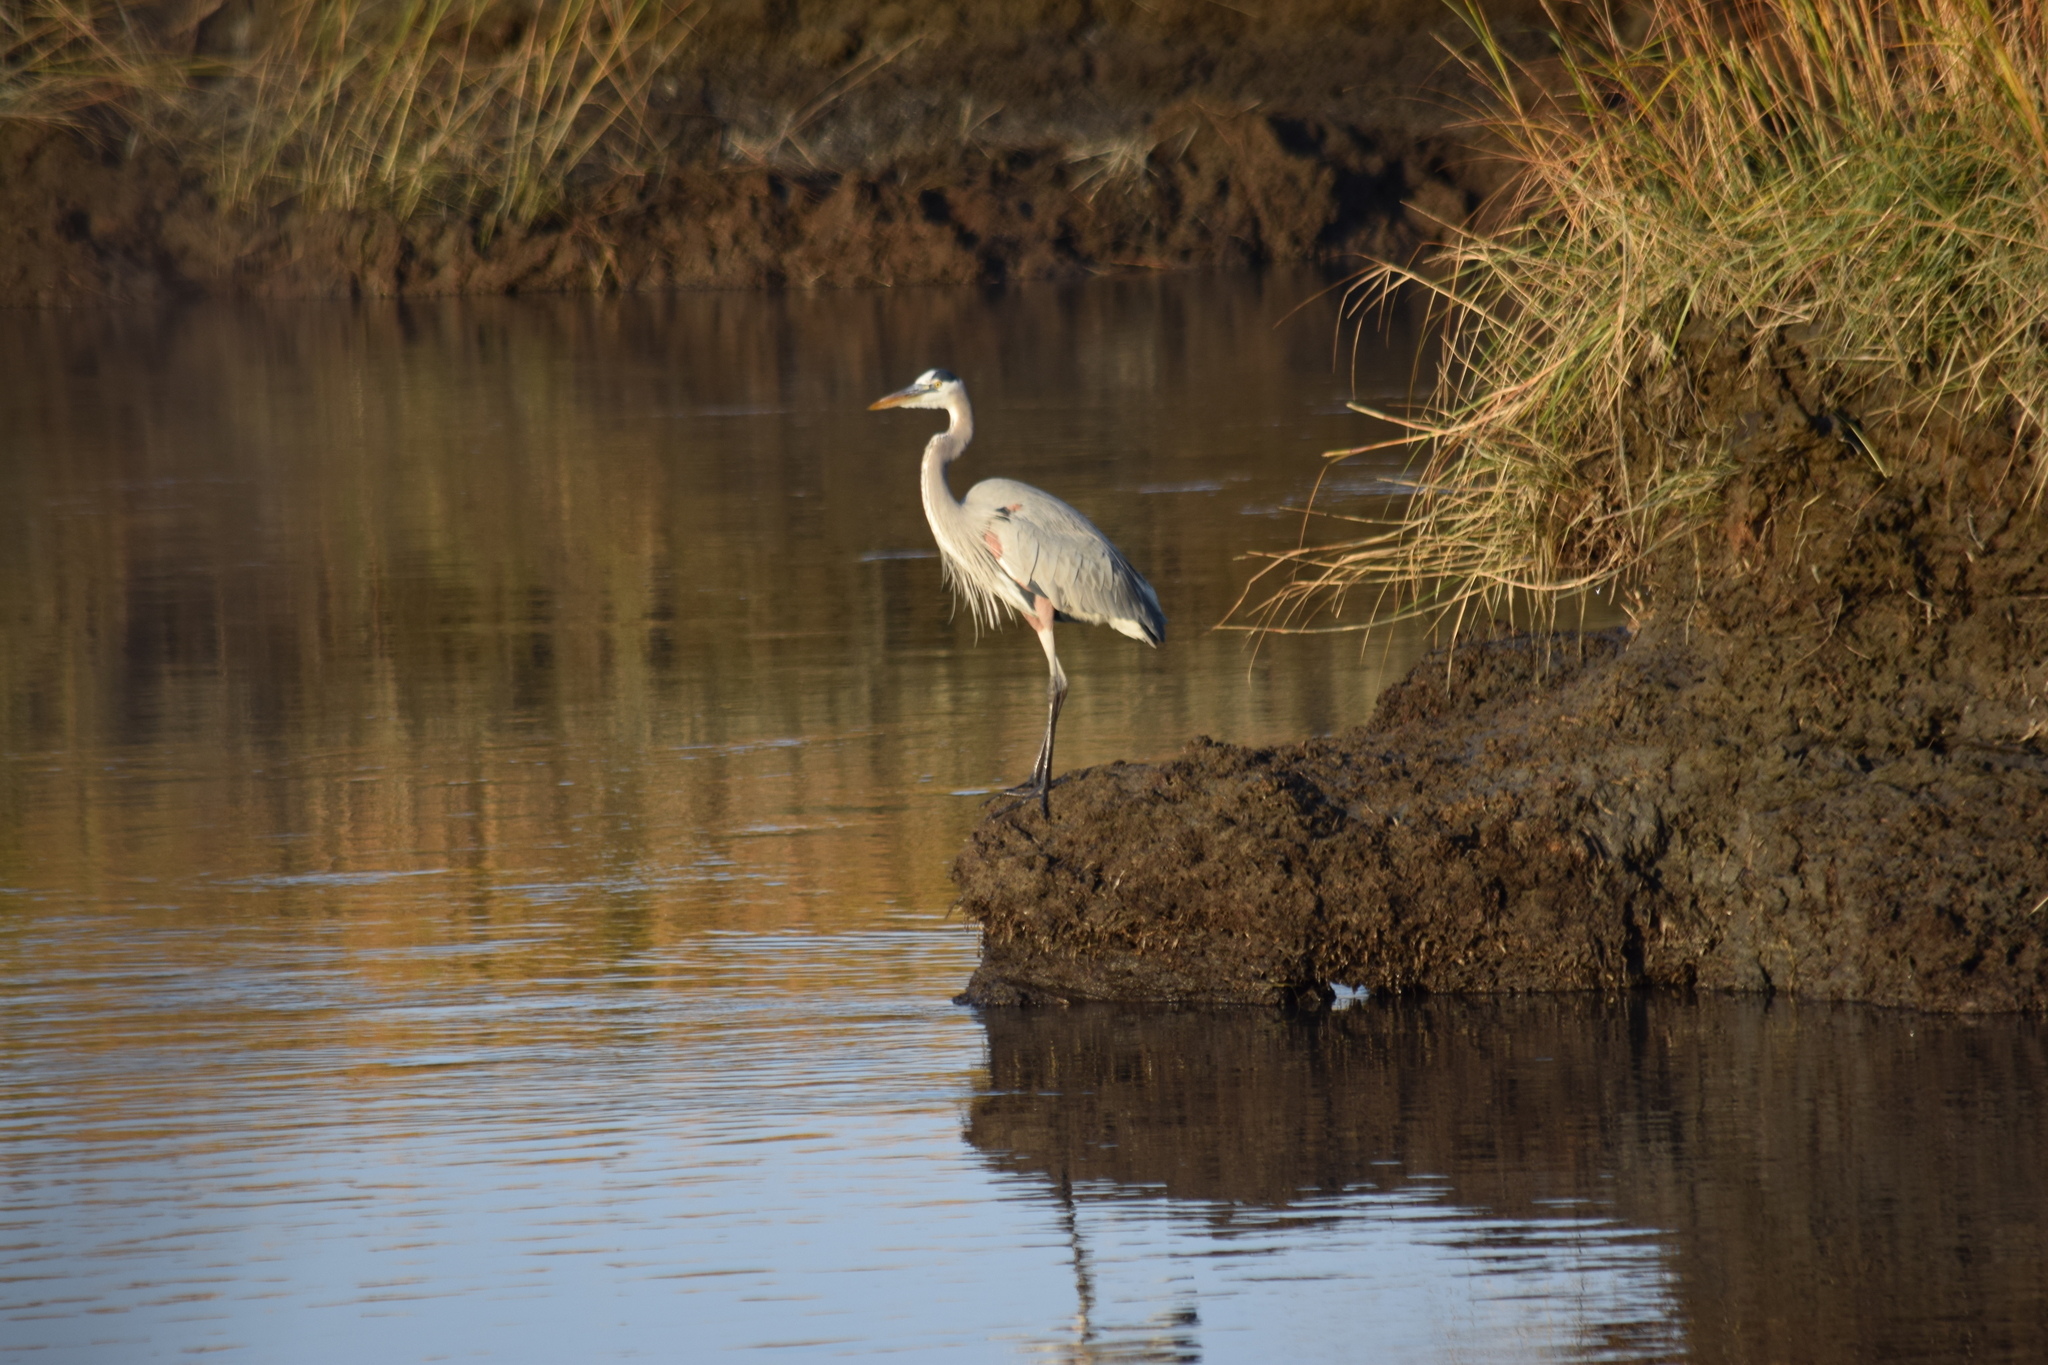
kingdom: Animalia
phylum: Chordata
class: Aves
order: Pelecaniformes
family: Ardeidae
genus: Ardea
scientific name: Ardea herodias
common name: Great blue heron
